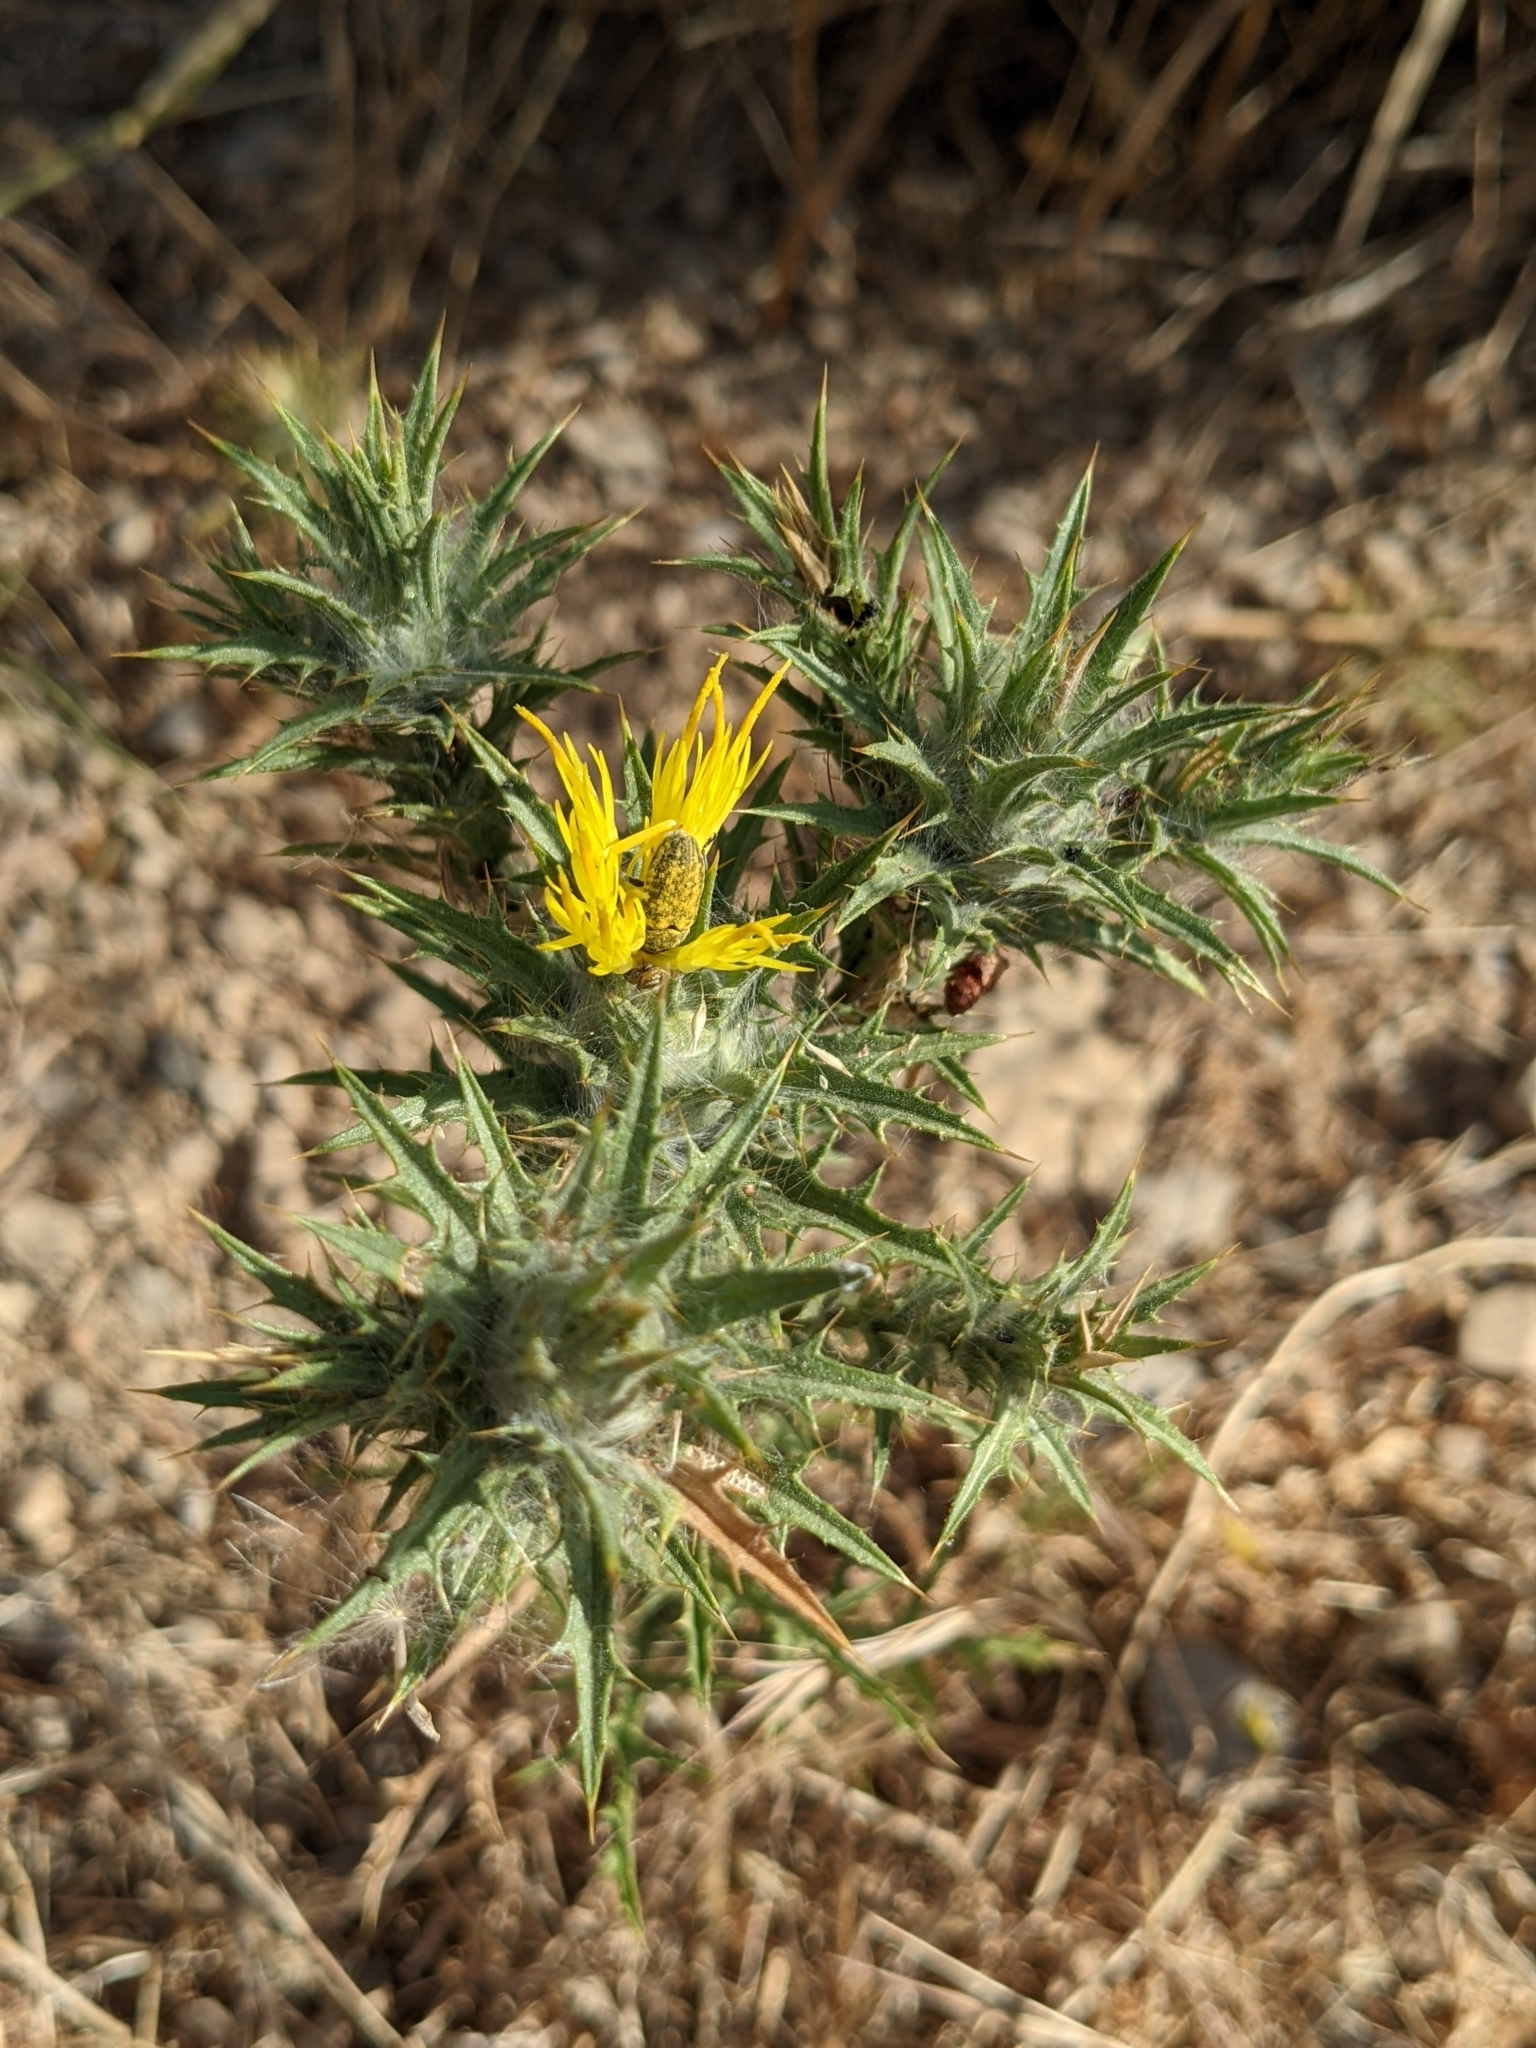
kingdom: Plantae
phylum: Tracheophyta
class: Magnoliopsida
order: Asterales
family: Asteraceae
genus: Carthamus
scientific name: Carthamus lanatus
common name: Downy safflower
